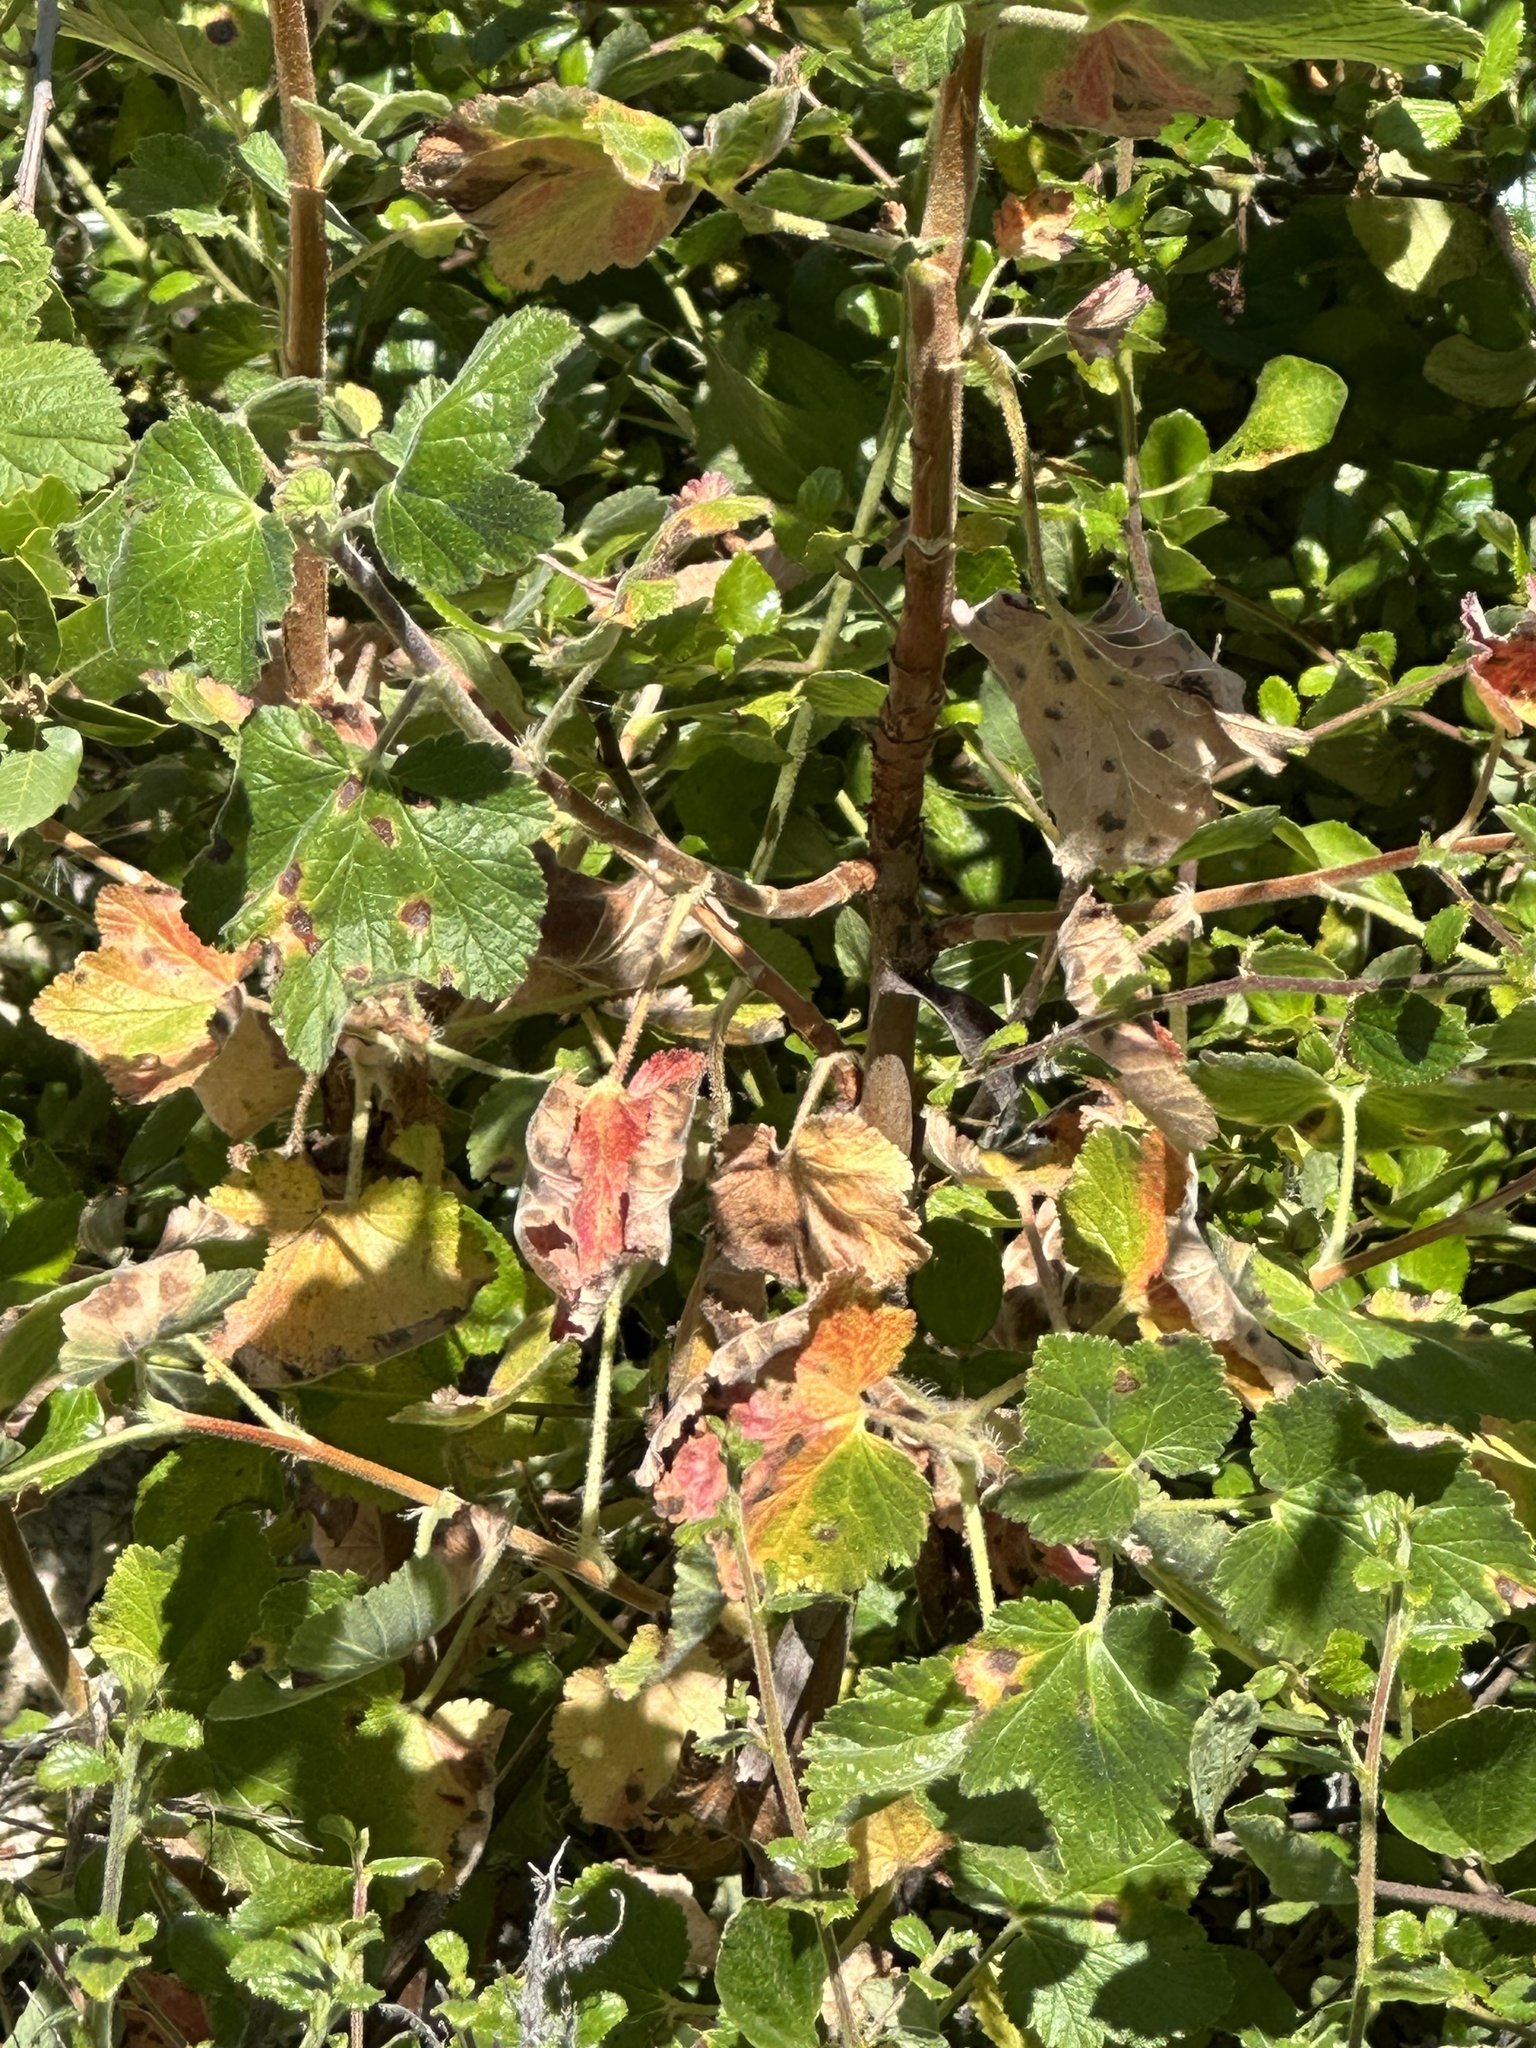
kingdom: Plantae
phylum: Tracheophyta
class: Magnoliopsida
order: Saxifragales
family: Grossulariaceae
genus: Ribes
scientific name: Ribes canthariforme
